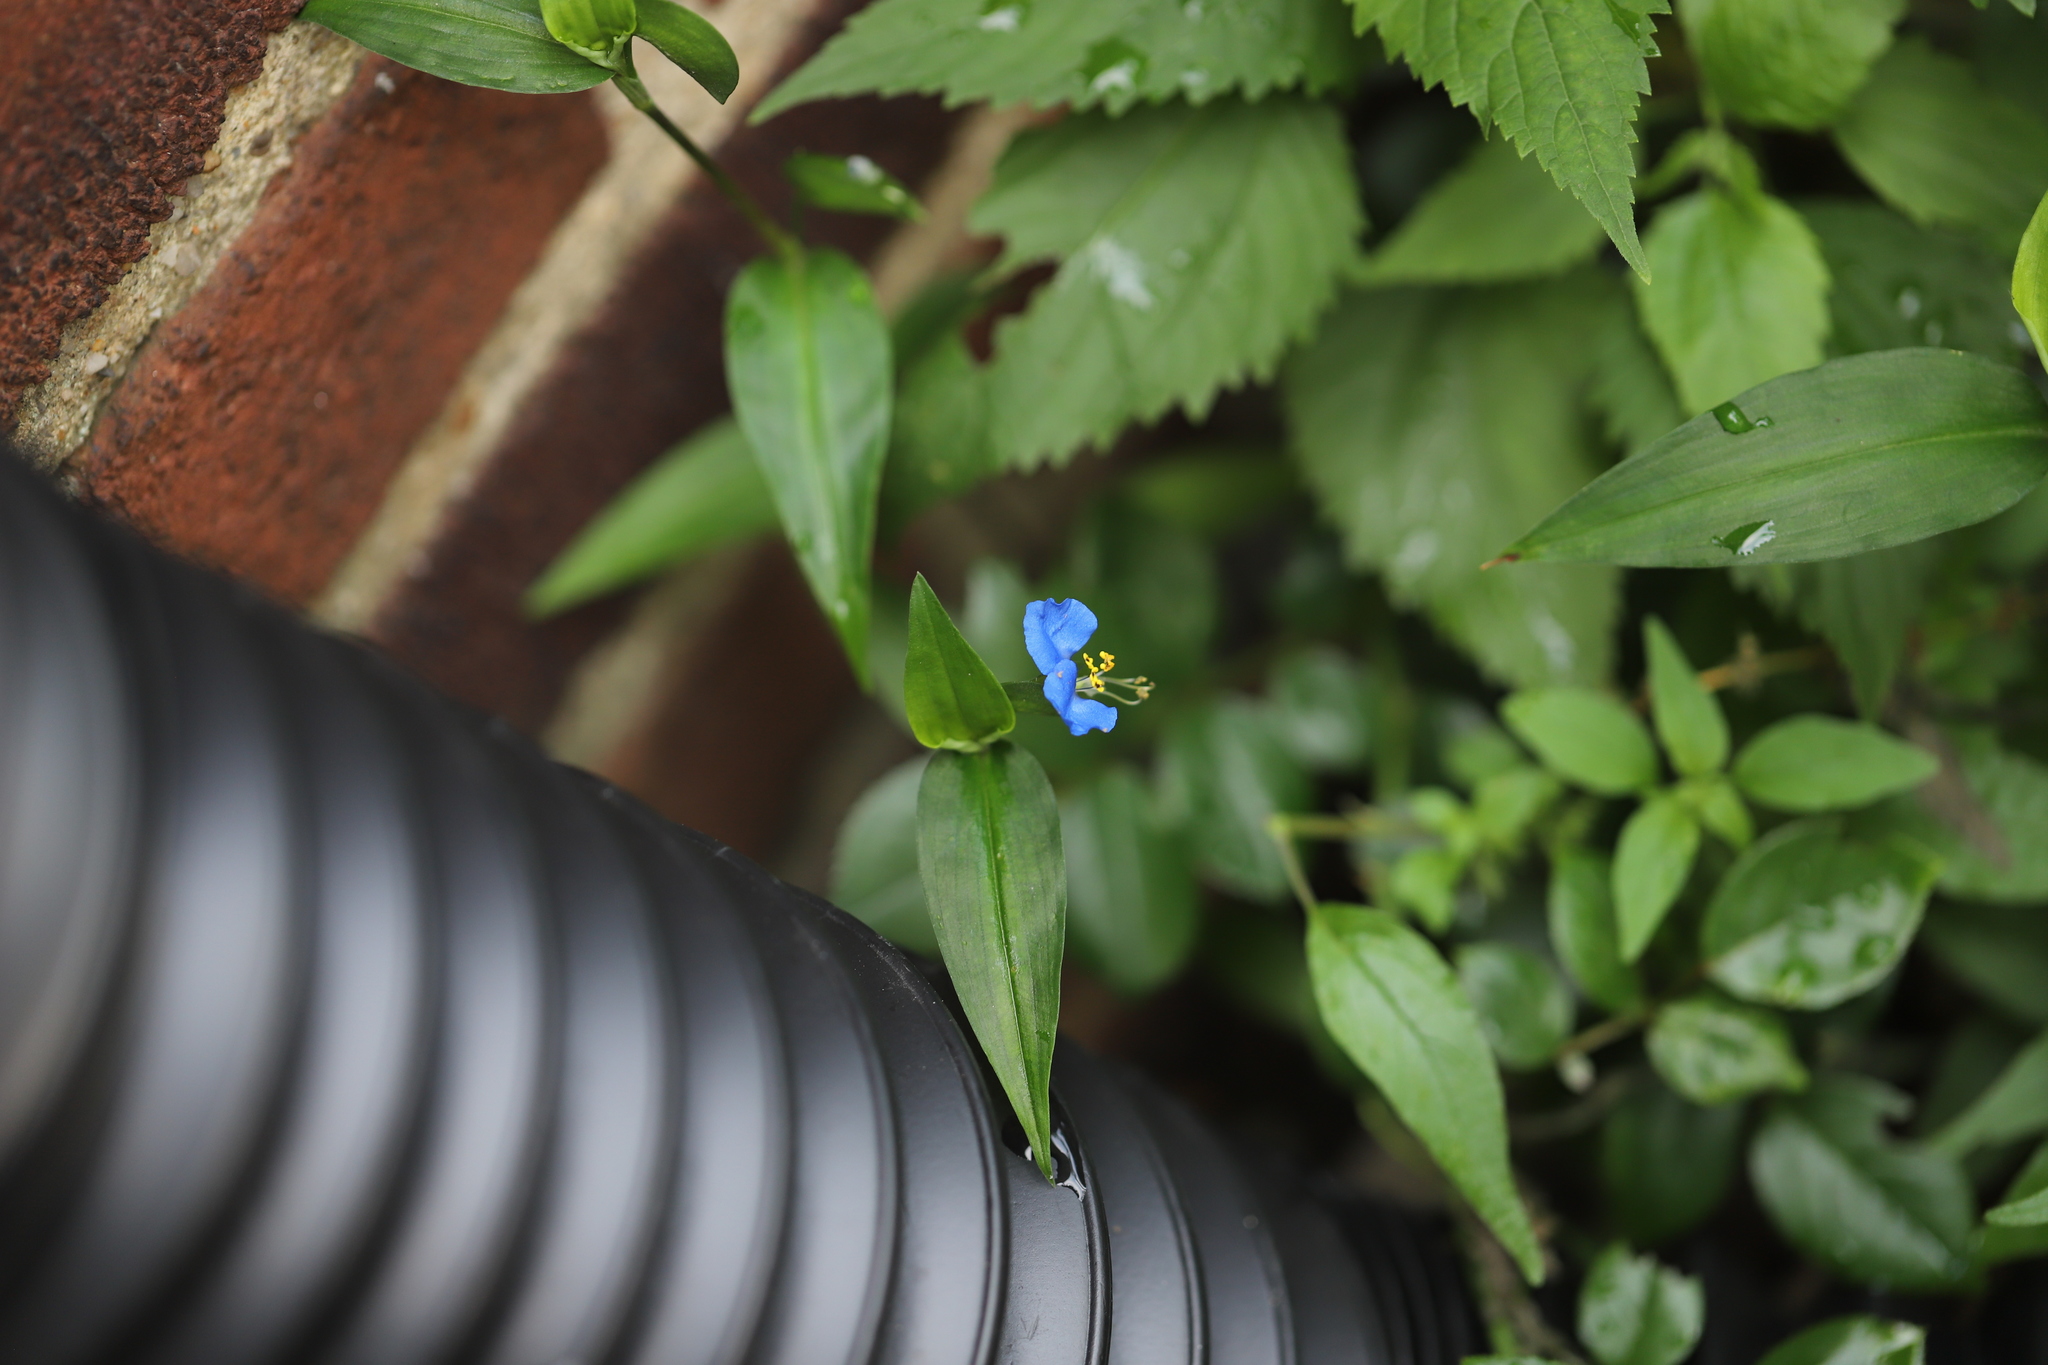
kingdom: Plantae
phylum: Tracheophyta
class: Liliopsida
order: Commelinales
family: Commelinaceae
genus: Commelina
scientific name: Commelina communis
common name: Asiatic dayflower
